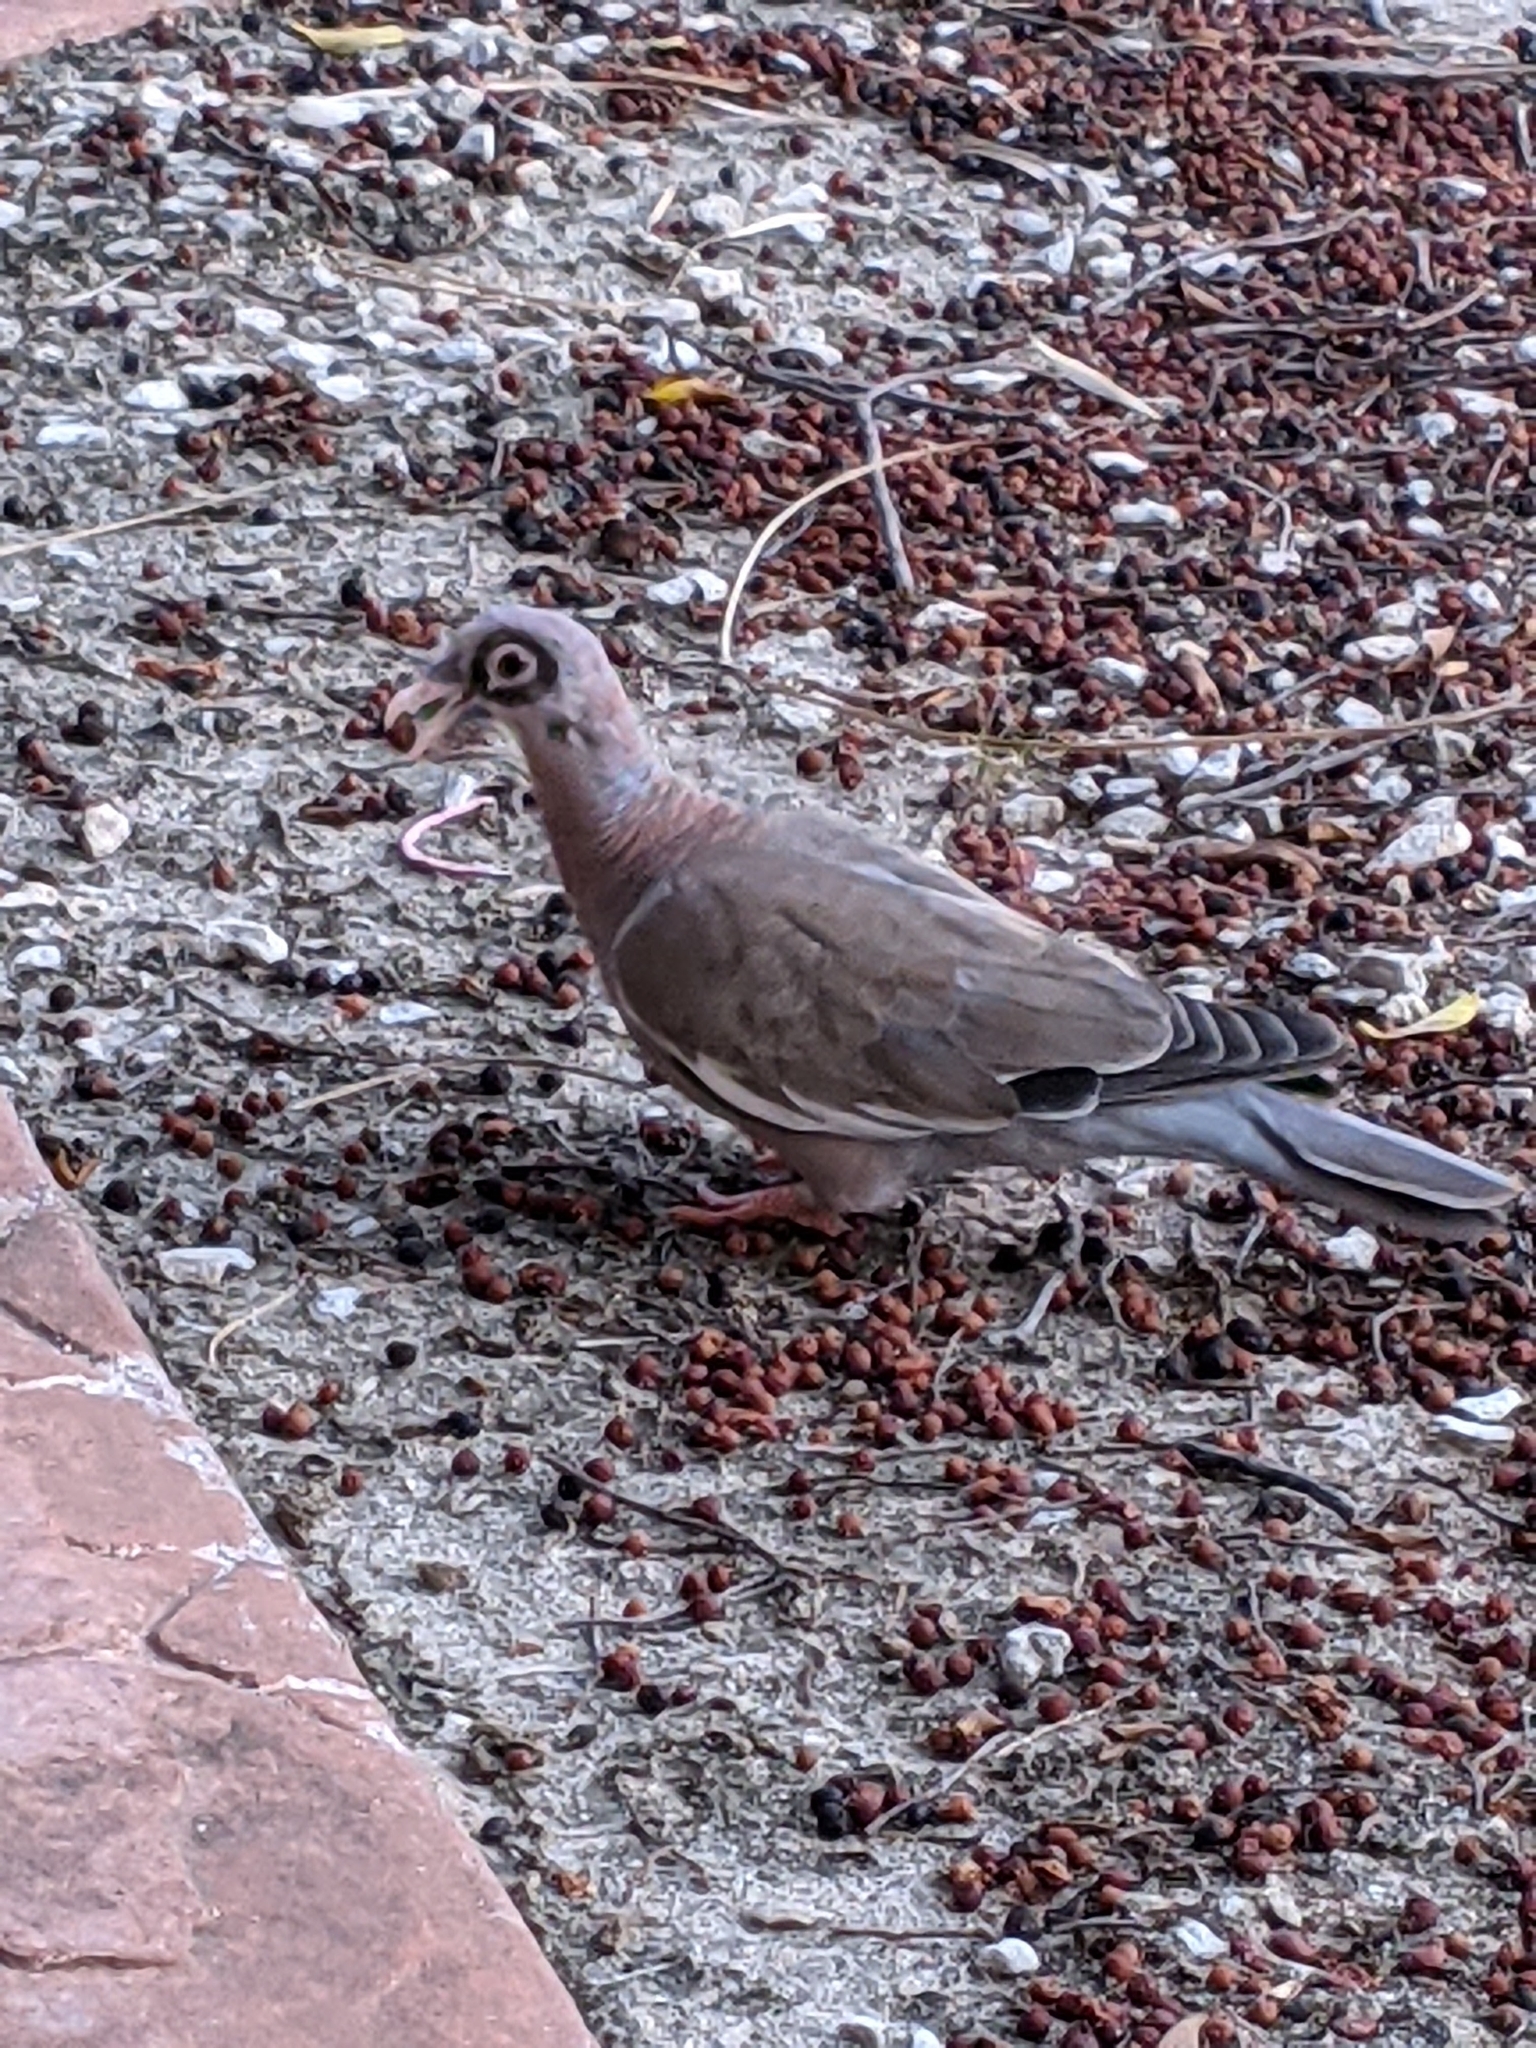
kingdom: Animalia
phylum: Chordata
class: Aves
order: Columbiformes
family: Columbidae
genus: Patagioenas
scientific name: Patagioenas corensis
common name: Bare-eyed pigeon
